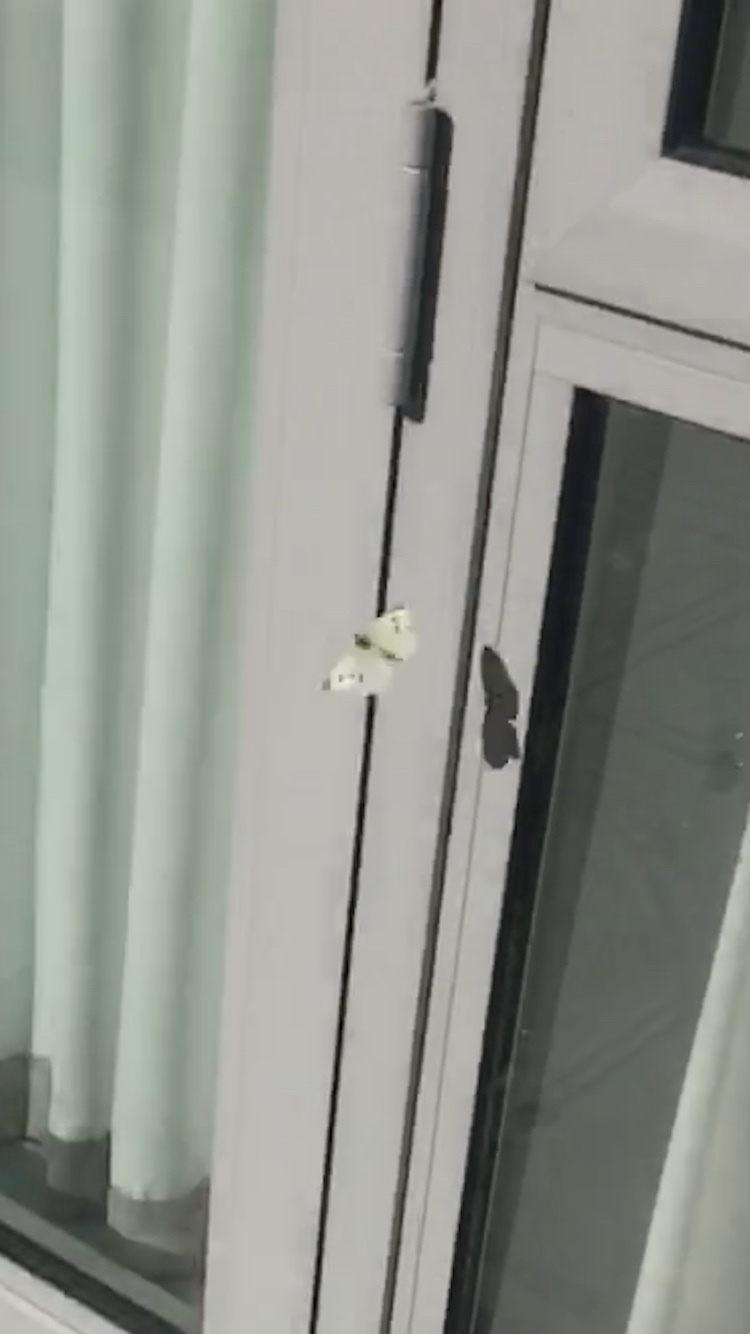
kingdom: Animalia
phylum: Arthropoda
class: Insecta
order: Lepidoptera
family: Pieridae
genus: Pieris
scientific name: Pieris rapae
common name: Small white
